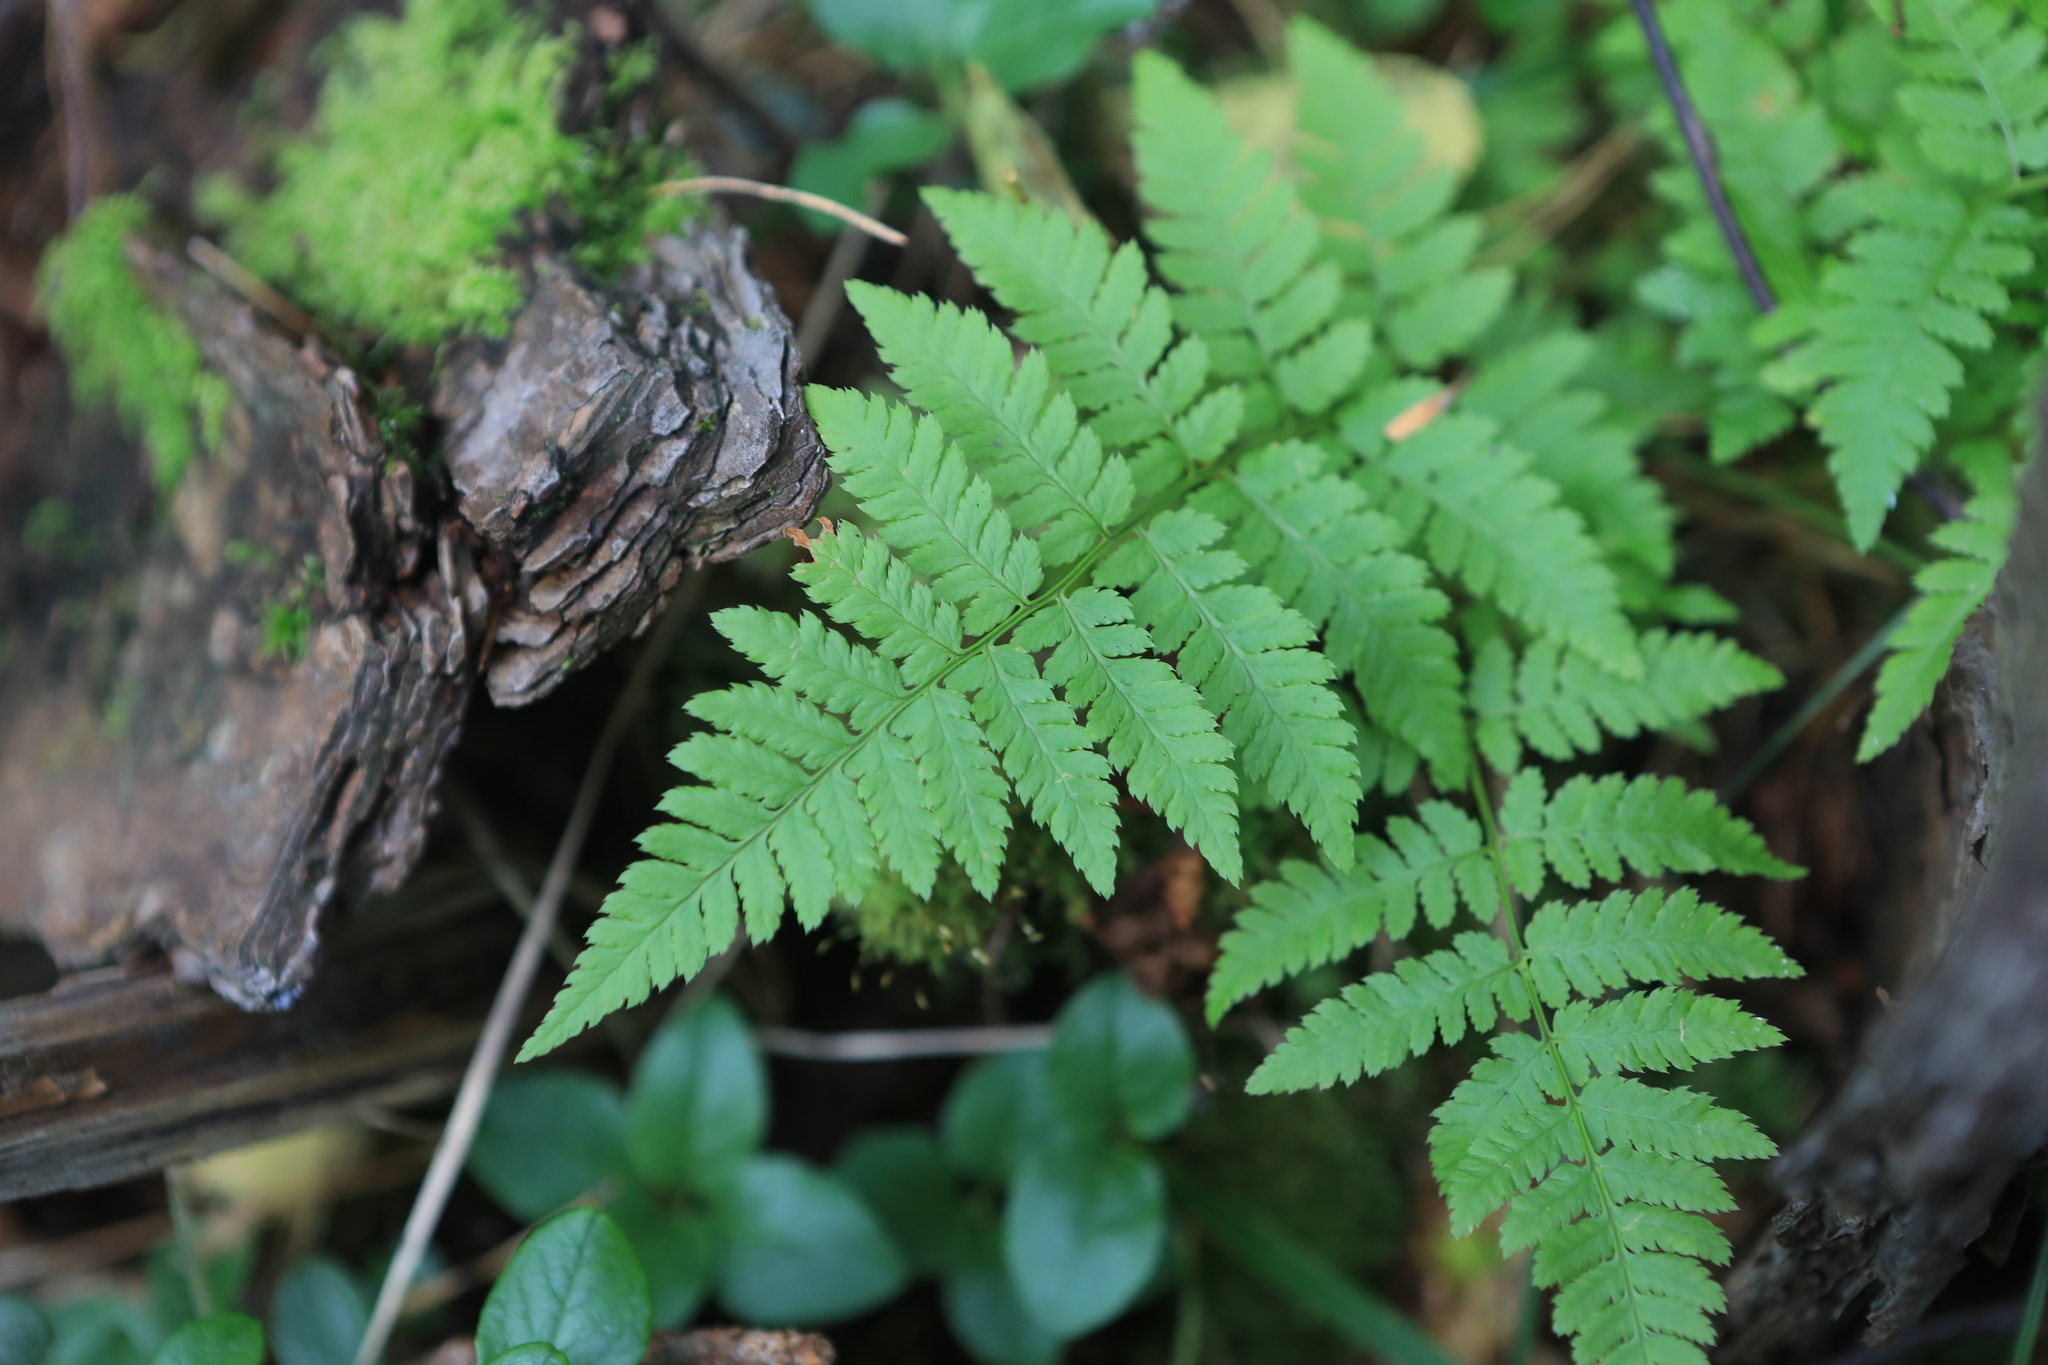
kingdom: Plantae
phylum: Tracheophyta
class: Polypodiopsida
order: Polypodiales
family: Dryopteridaceae
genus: Dryopteris
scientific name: Dryopteris carthusiana
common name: Narrow buckler-fern
